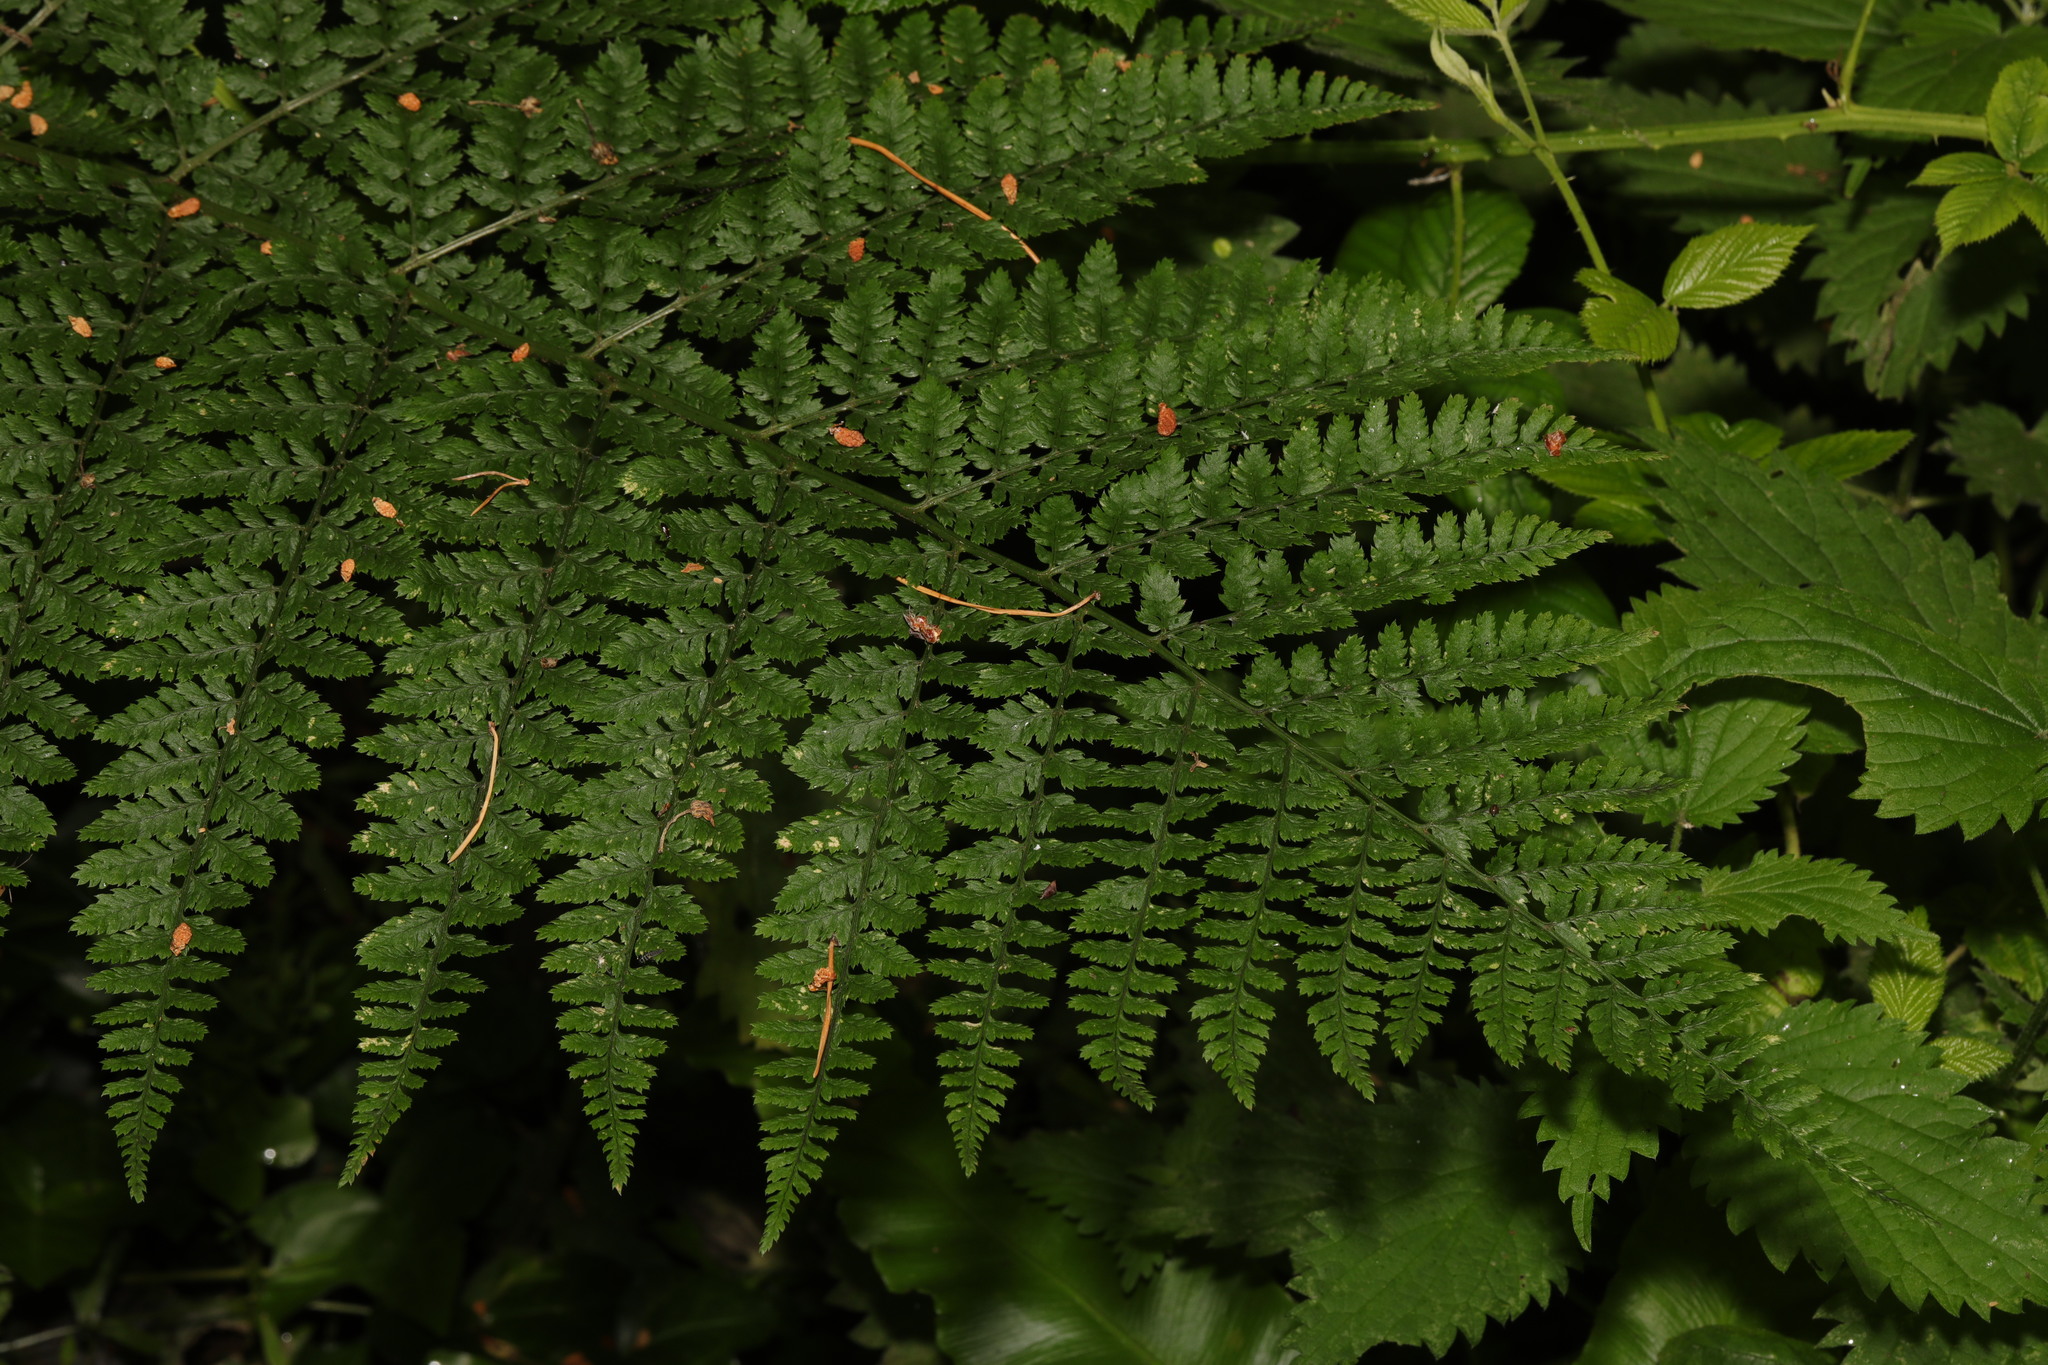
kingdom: Plantae
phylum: Tracheophyta
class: Polypodiopsida
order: Polypodiales
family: Dryopteridaceae
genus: Dryopteris
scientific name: Dryopteris dilatata
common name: Broad buckler-fern
